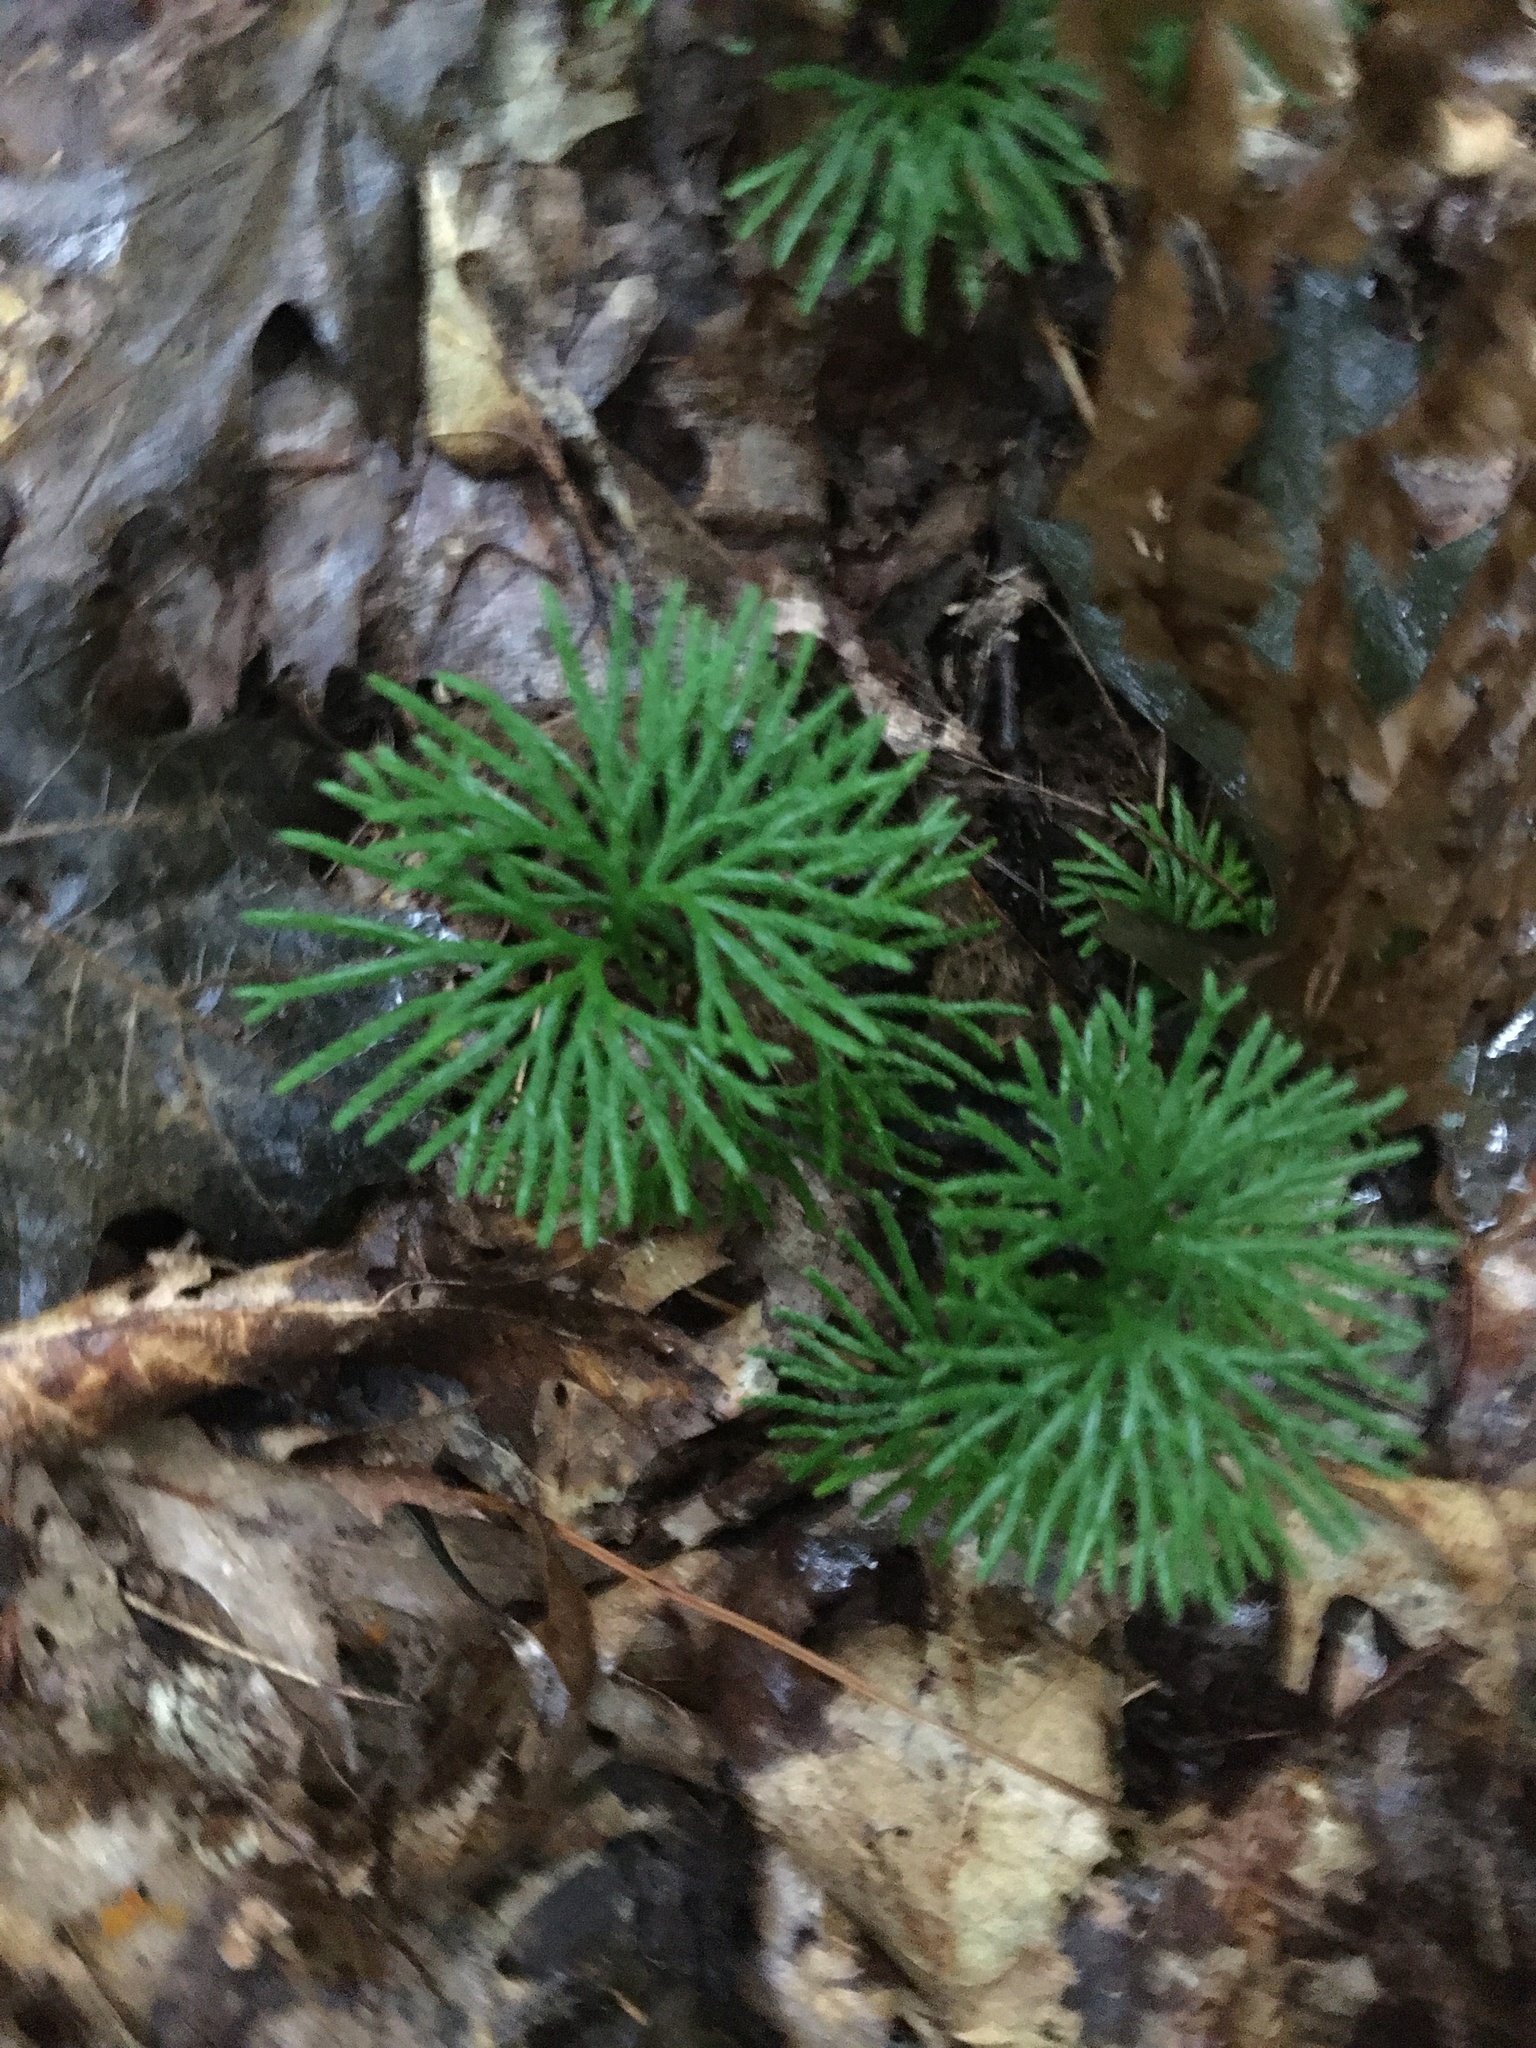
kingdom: Plantae
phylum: Tracheophyta
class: Lycopodiopsida
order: Lycopodiales
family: Lycopodiaceae
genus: Diphasiastrum
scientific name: Diphasiastrum digitatum
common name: Southern running-pine
